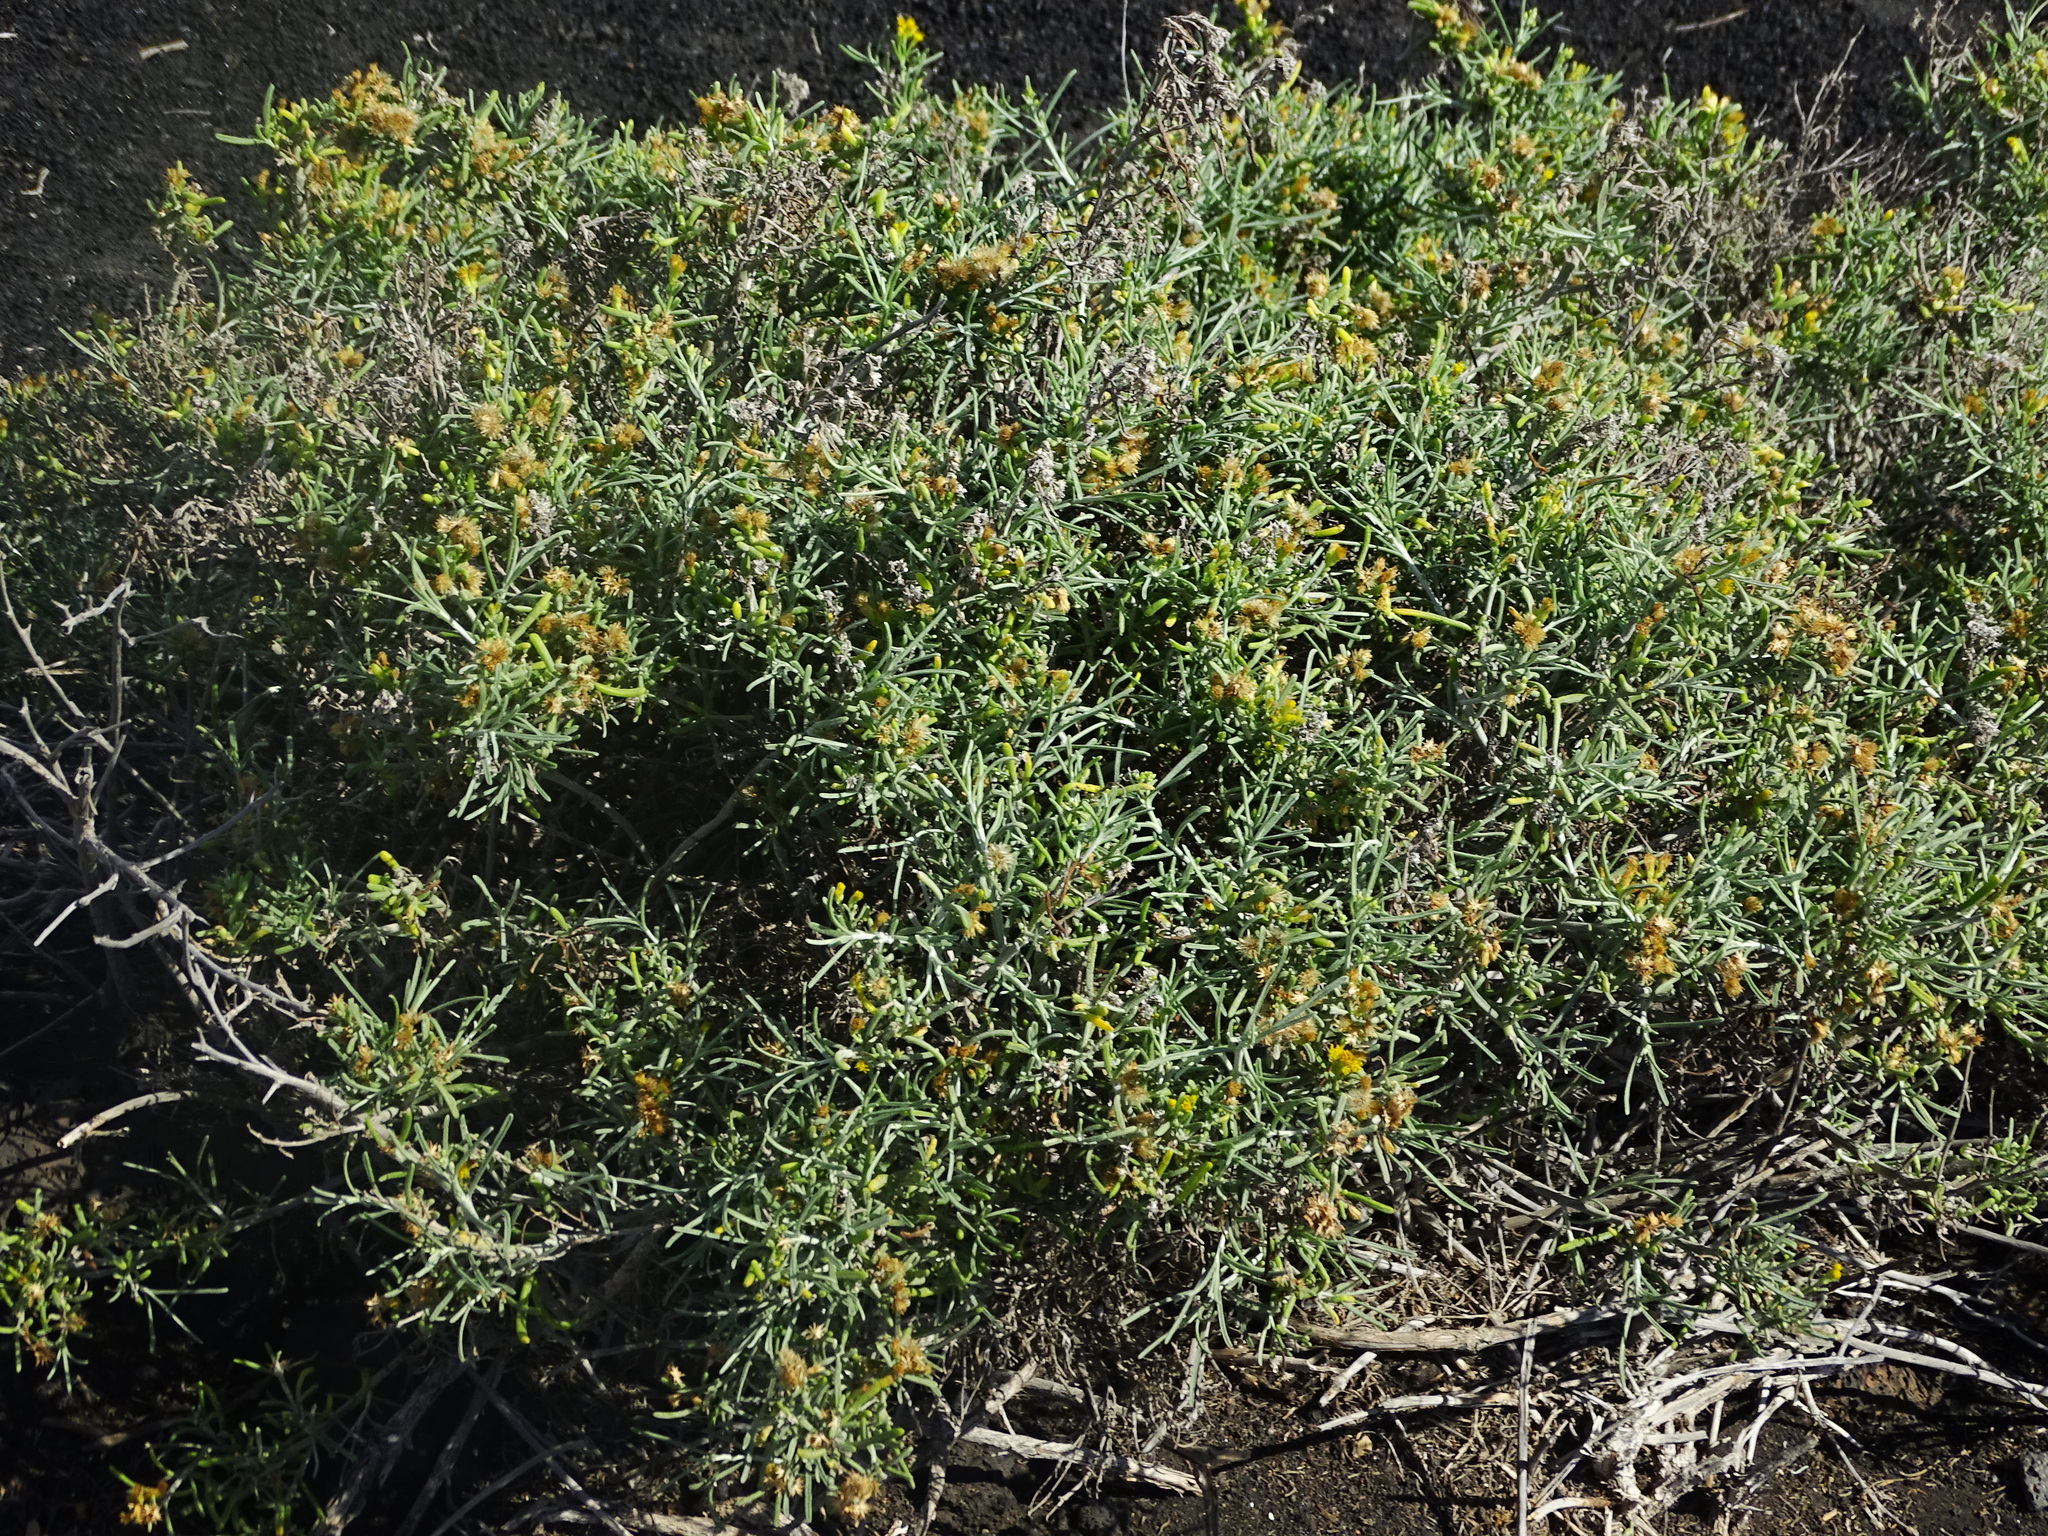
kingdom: Plantae
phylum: Tracheophyta
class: Magnoliopsida
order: Asterales
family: Asteraceae
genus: Schizogyne
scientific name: Schizogyne sericea
